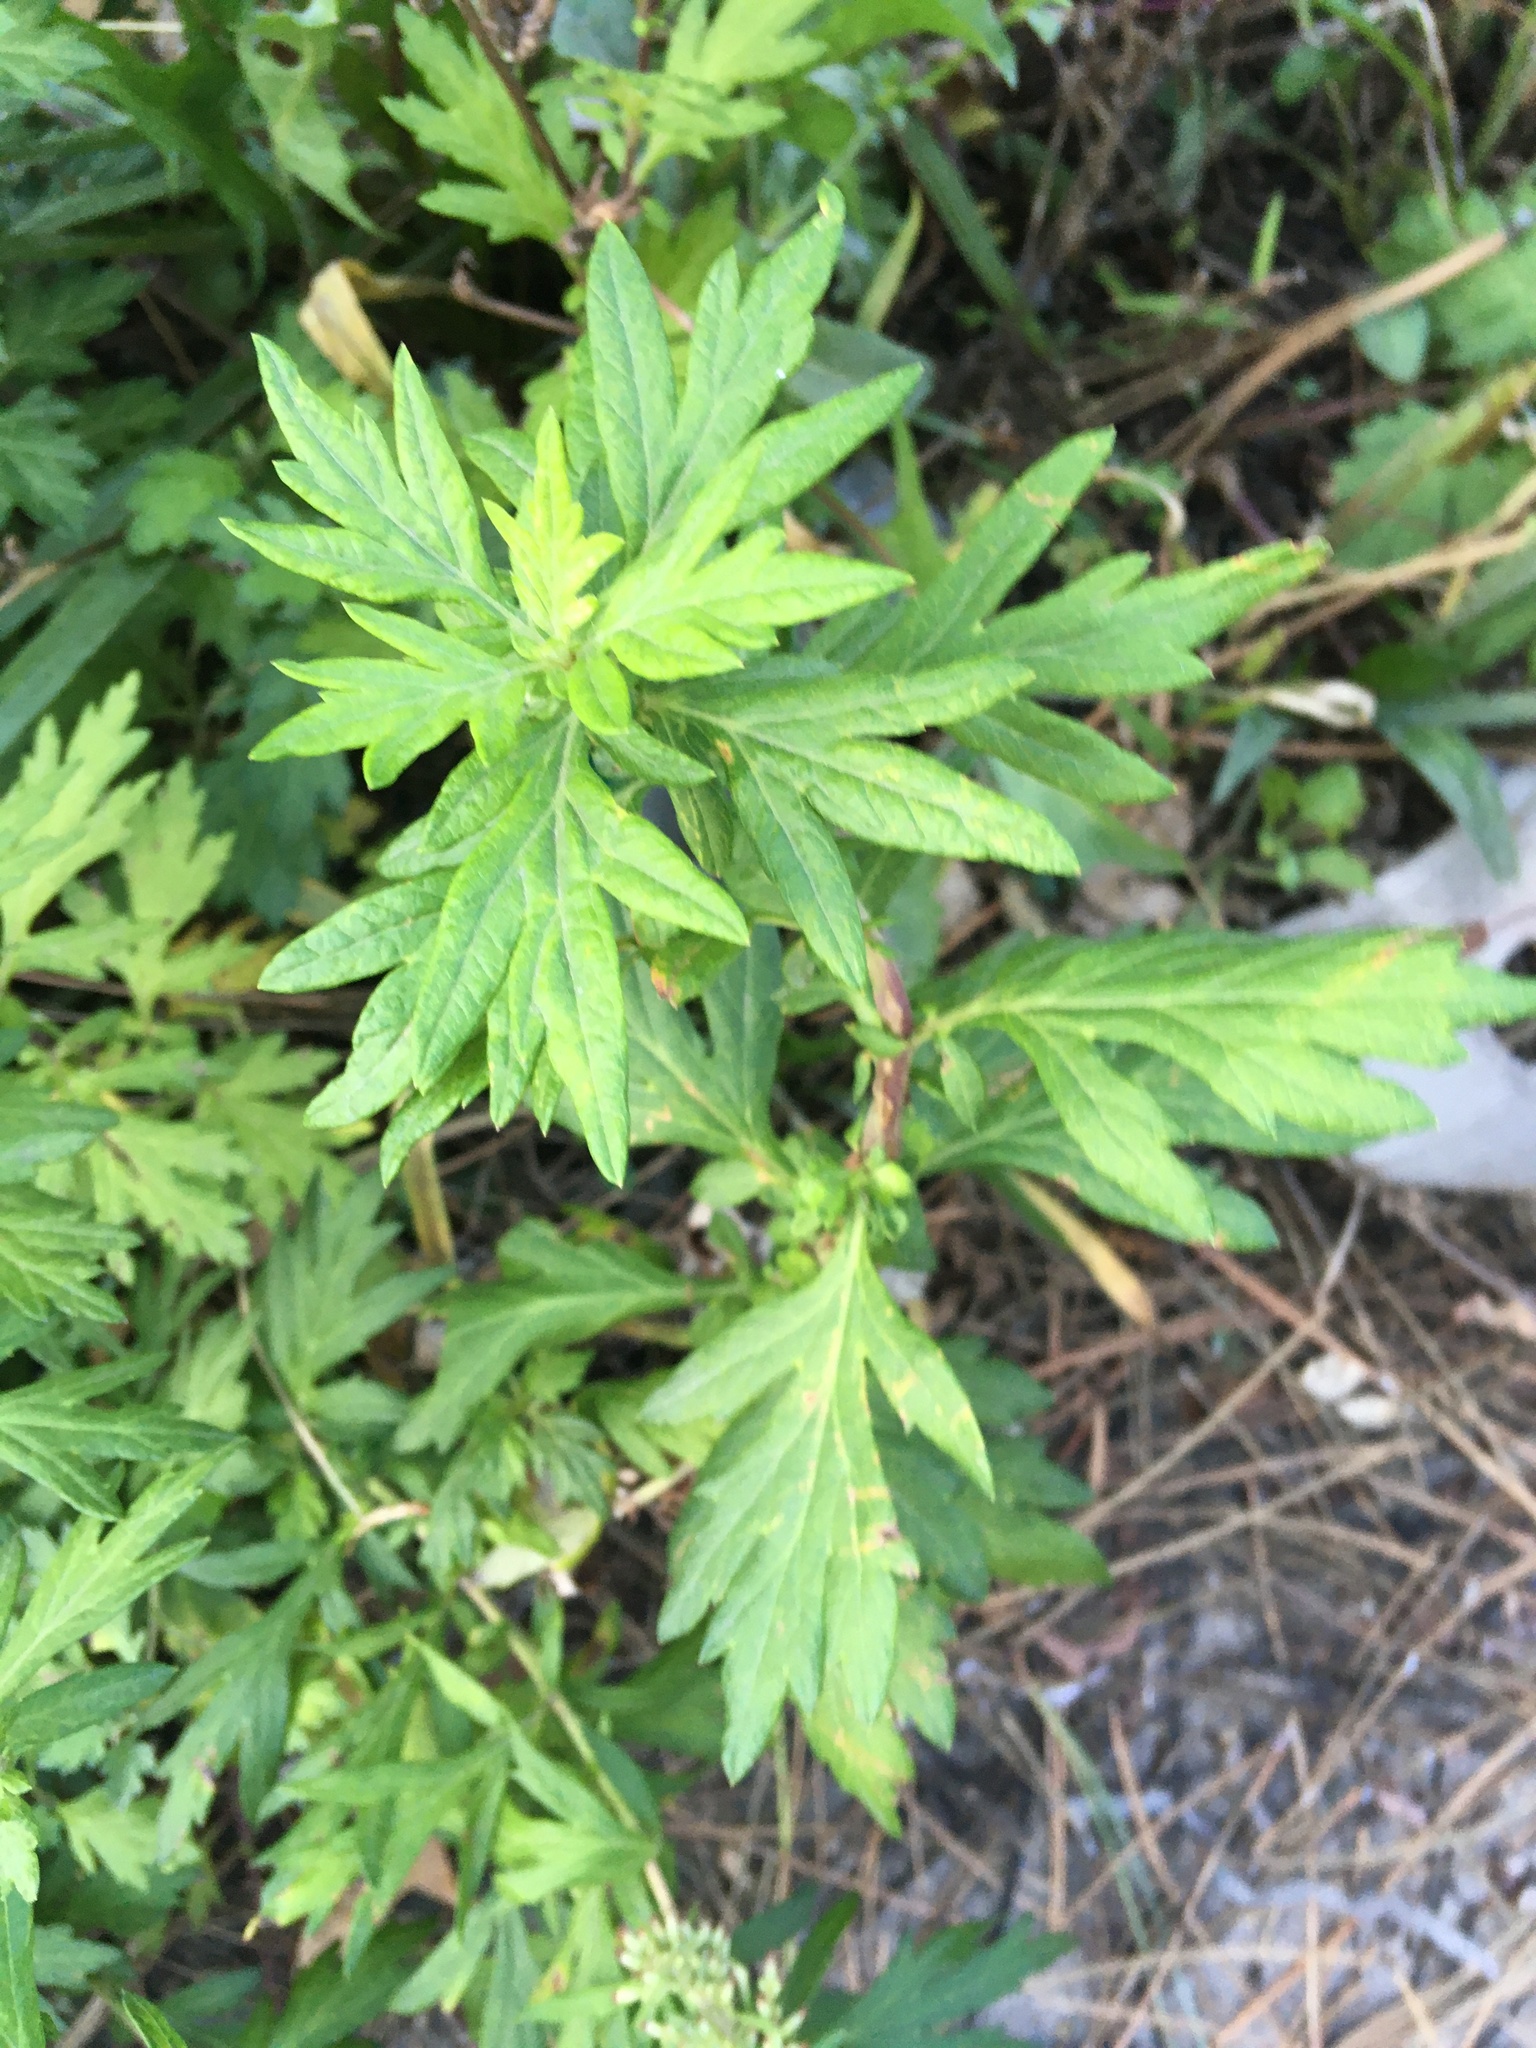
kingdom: Plantae
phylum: Tracheophyta
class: Magnoliopsida
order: Asterales
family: Asteraceae
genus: Artemisia
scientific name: Artemisia vulgaris
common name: Mugwort
